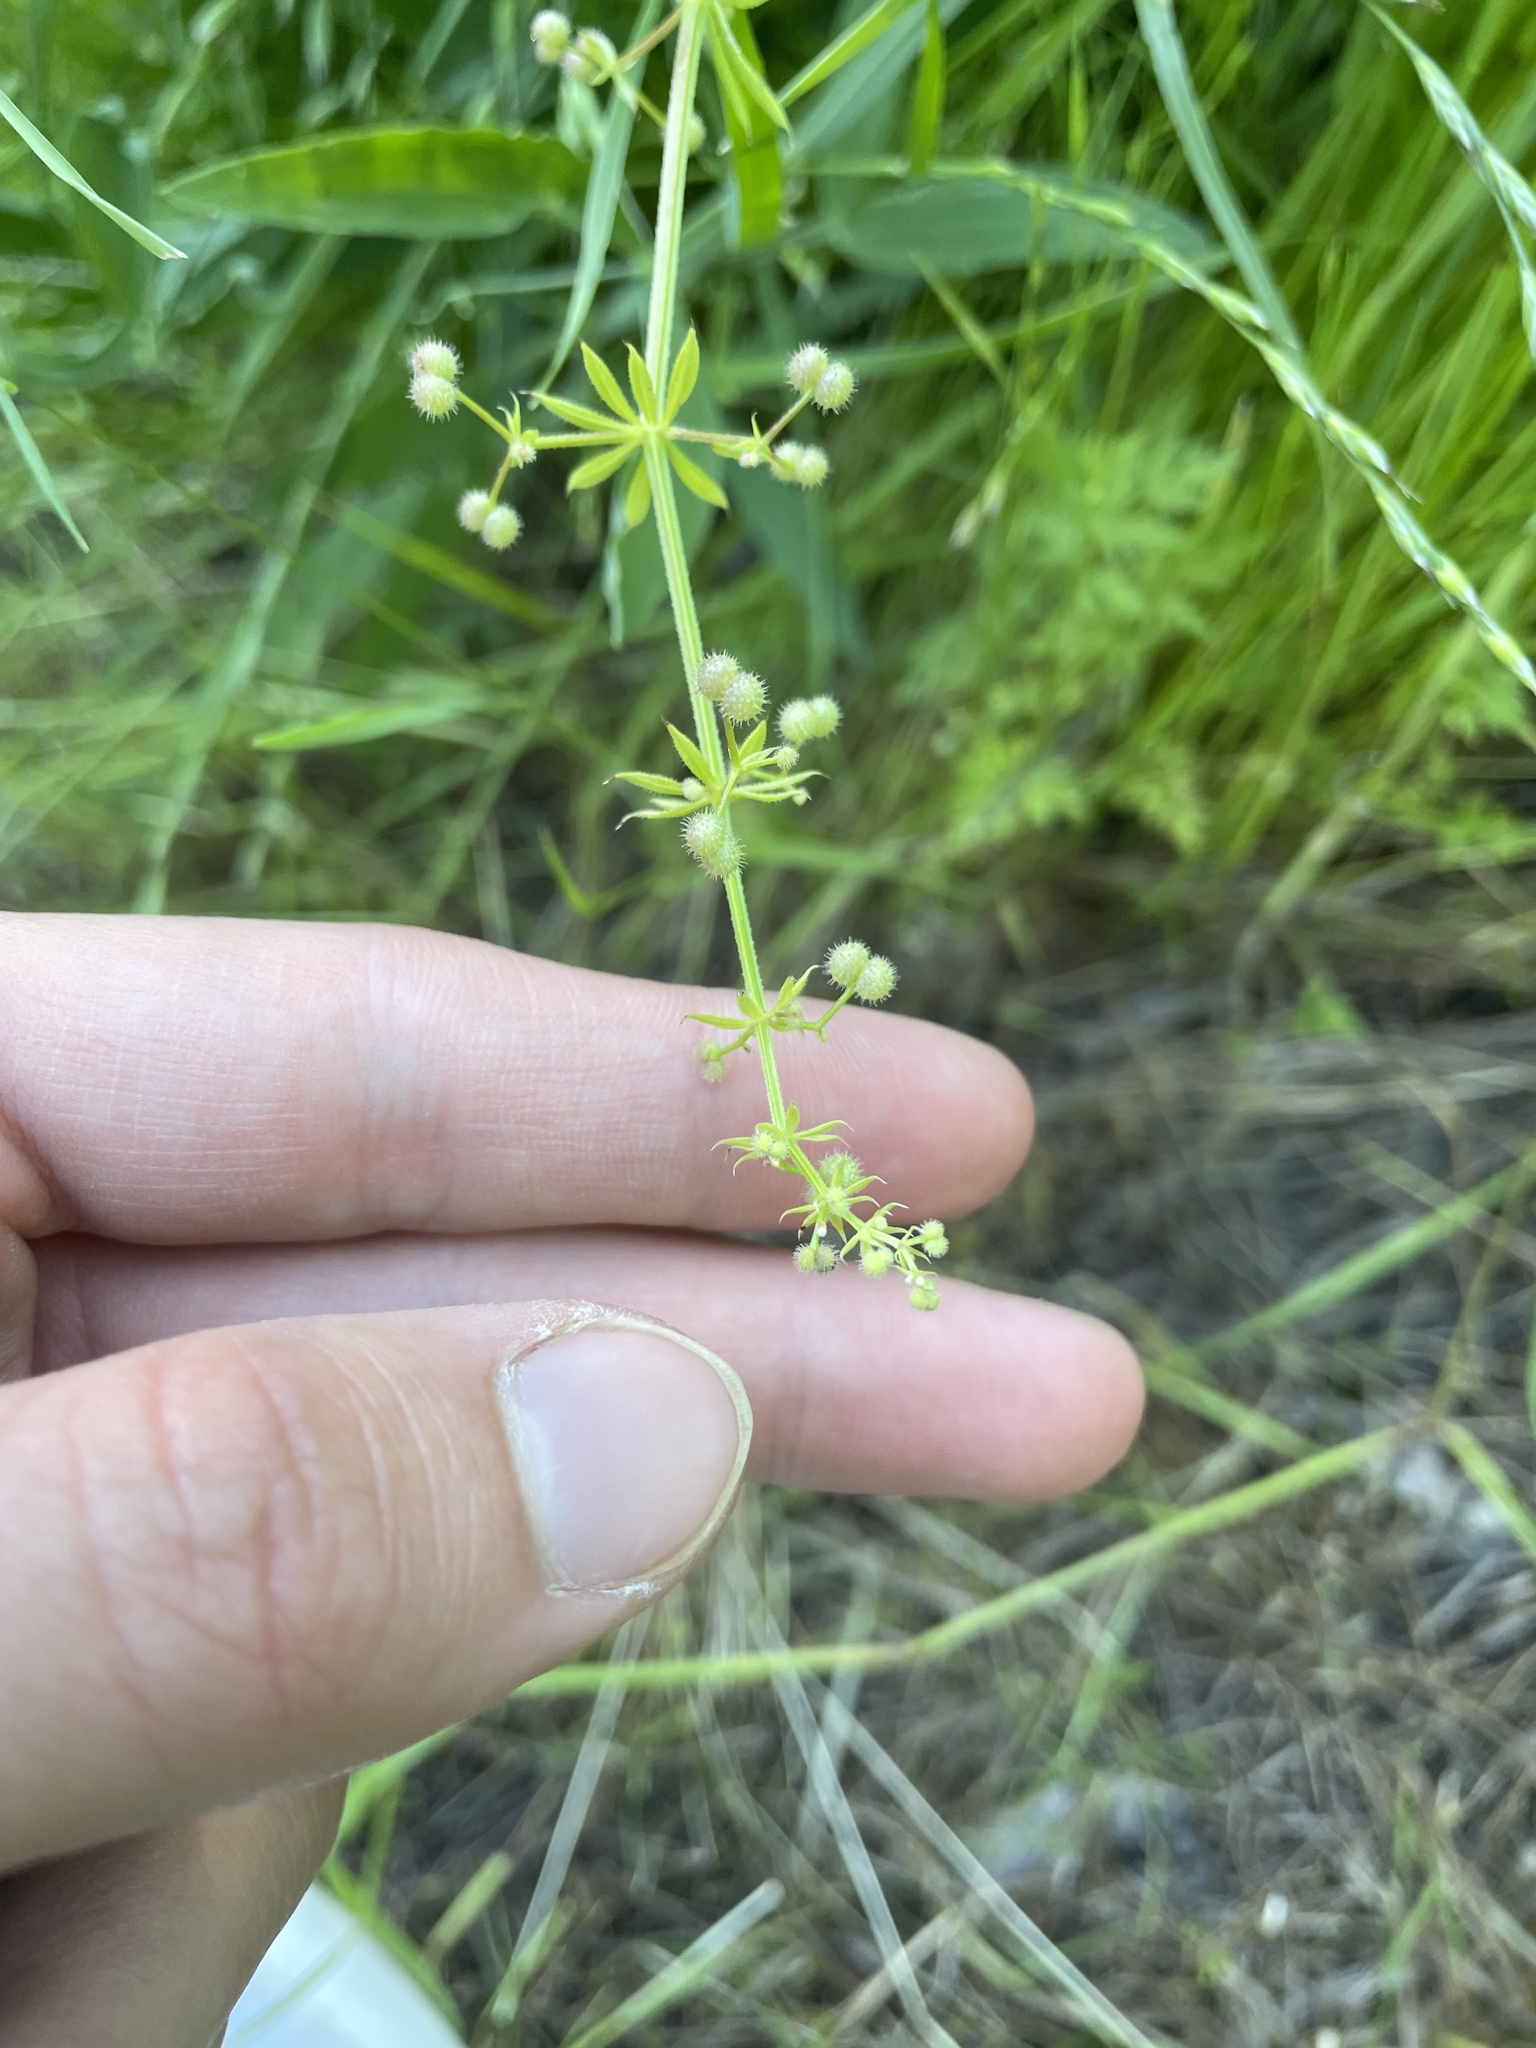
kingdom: Plantae
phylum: Tracheophyta
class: Magnoliopsida
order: Gentianales
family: Rubiaceae
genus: Galium
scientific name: Galium aparine
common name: Cleavers
